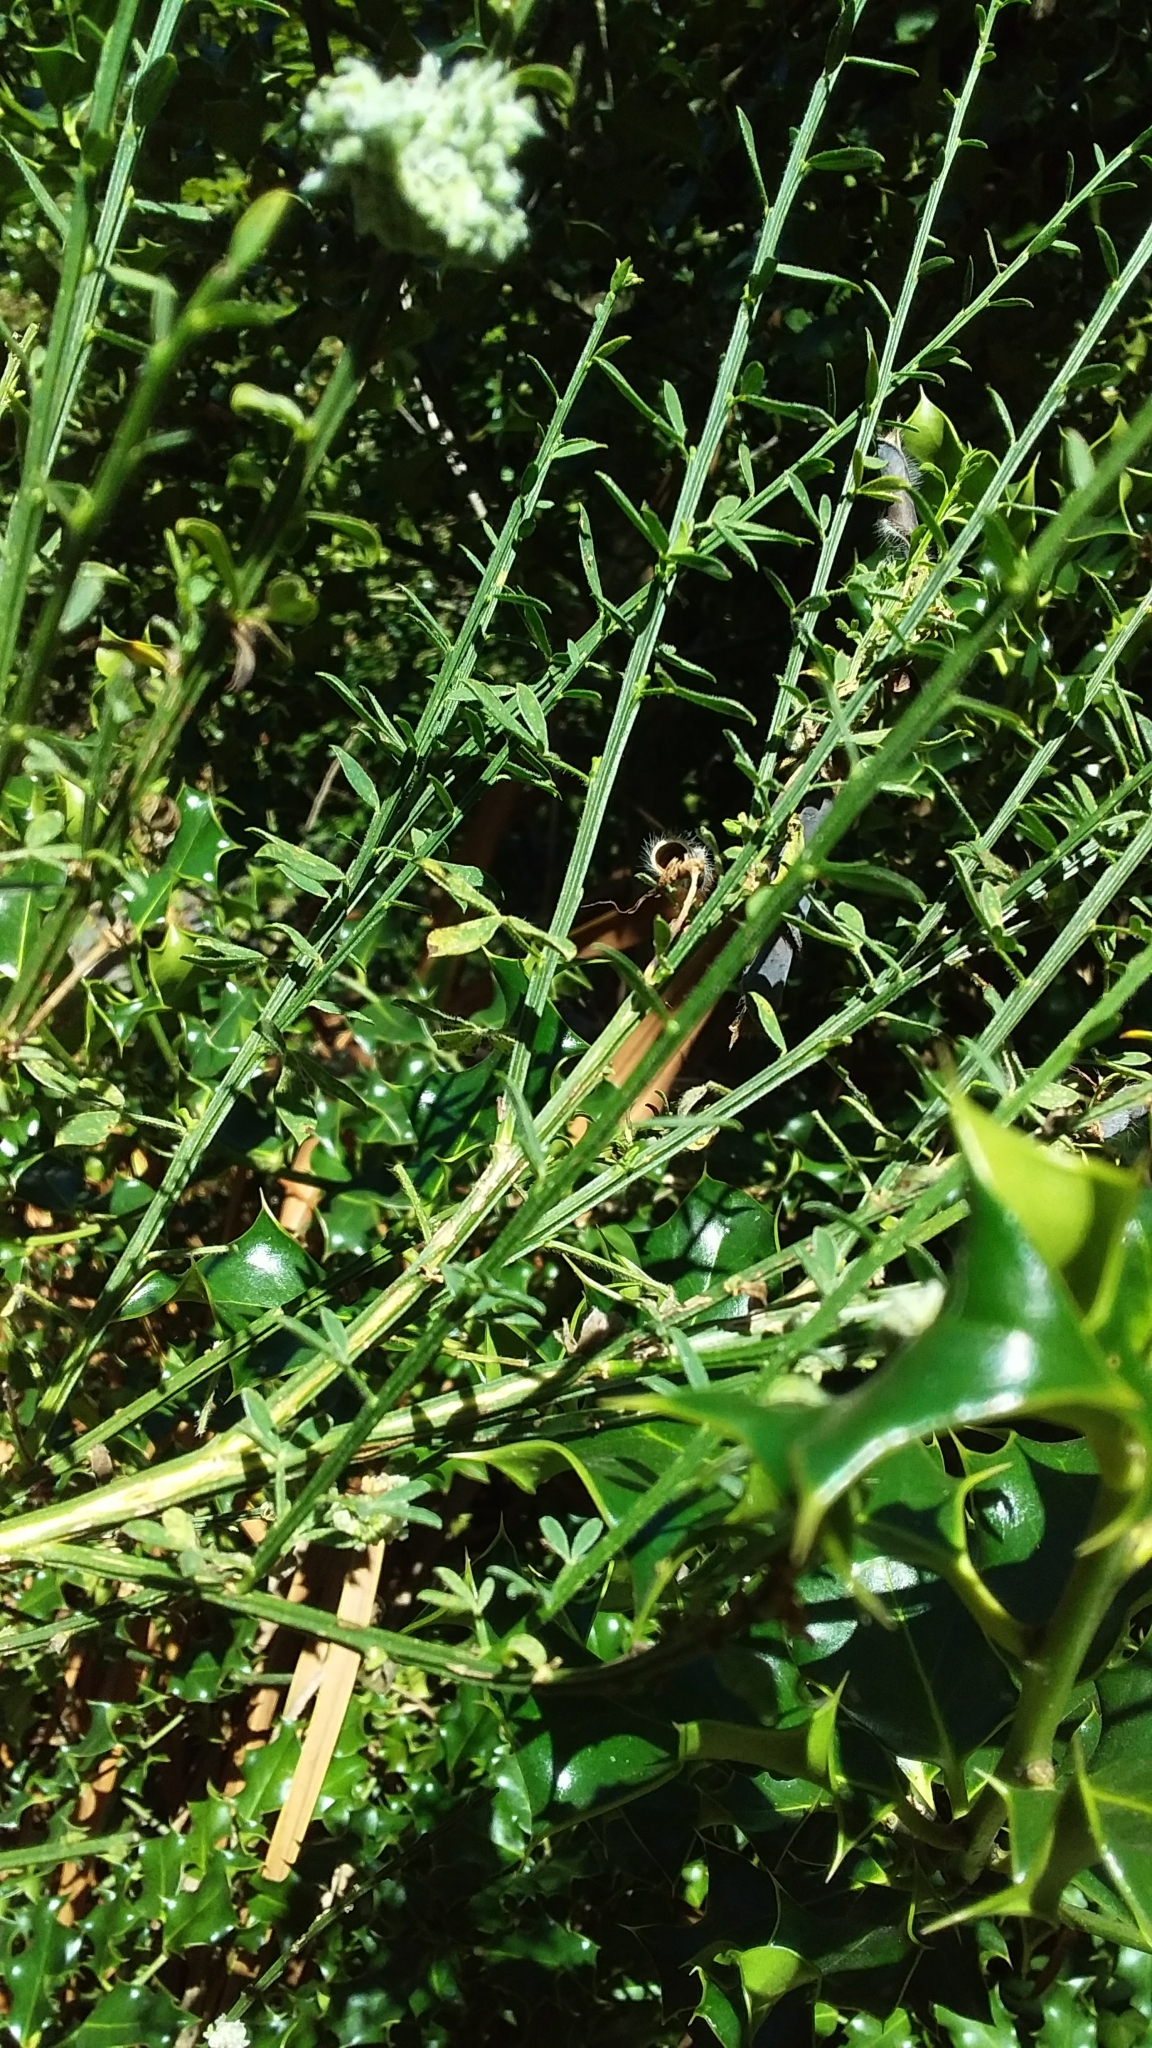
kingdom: Plantae
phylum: Tracheophyta
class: Magnoliopsida
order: Fabales
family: Fabaceae
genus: Cytisus
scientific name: Cytisus scoparius
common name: Scotch broom
